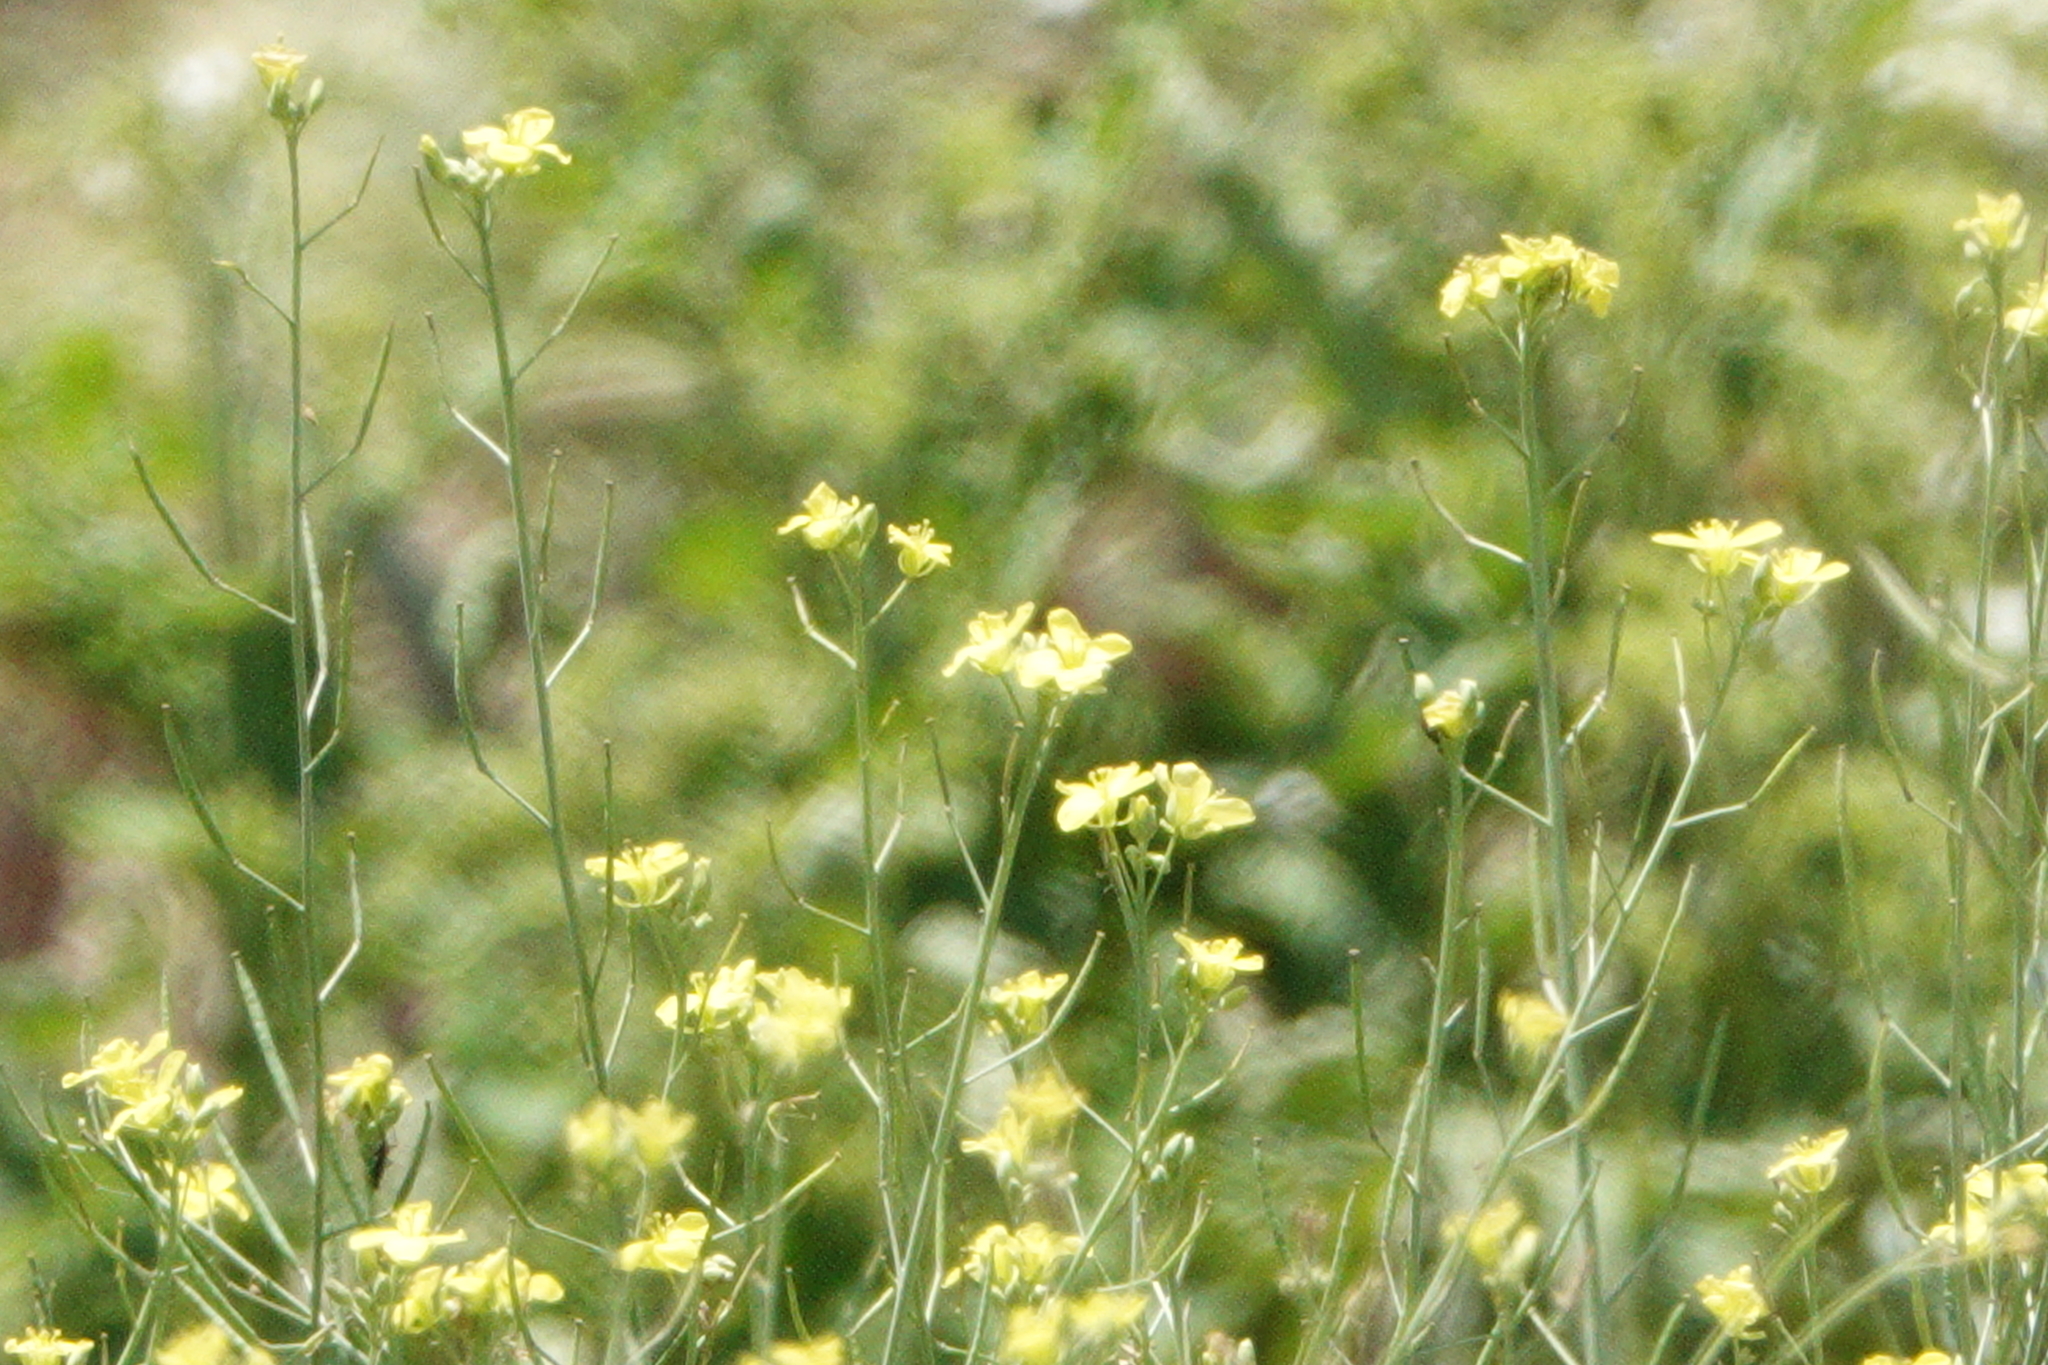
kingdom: Plantae
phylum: Tracheophyta
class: Magnoliopsida
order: Brassicales
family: Brassicaceae
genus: Brassica
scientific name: Brassica oleracea
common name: Cabbage
